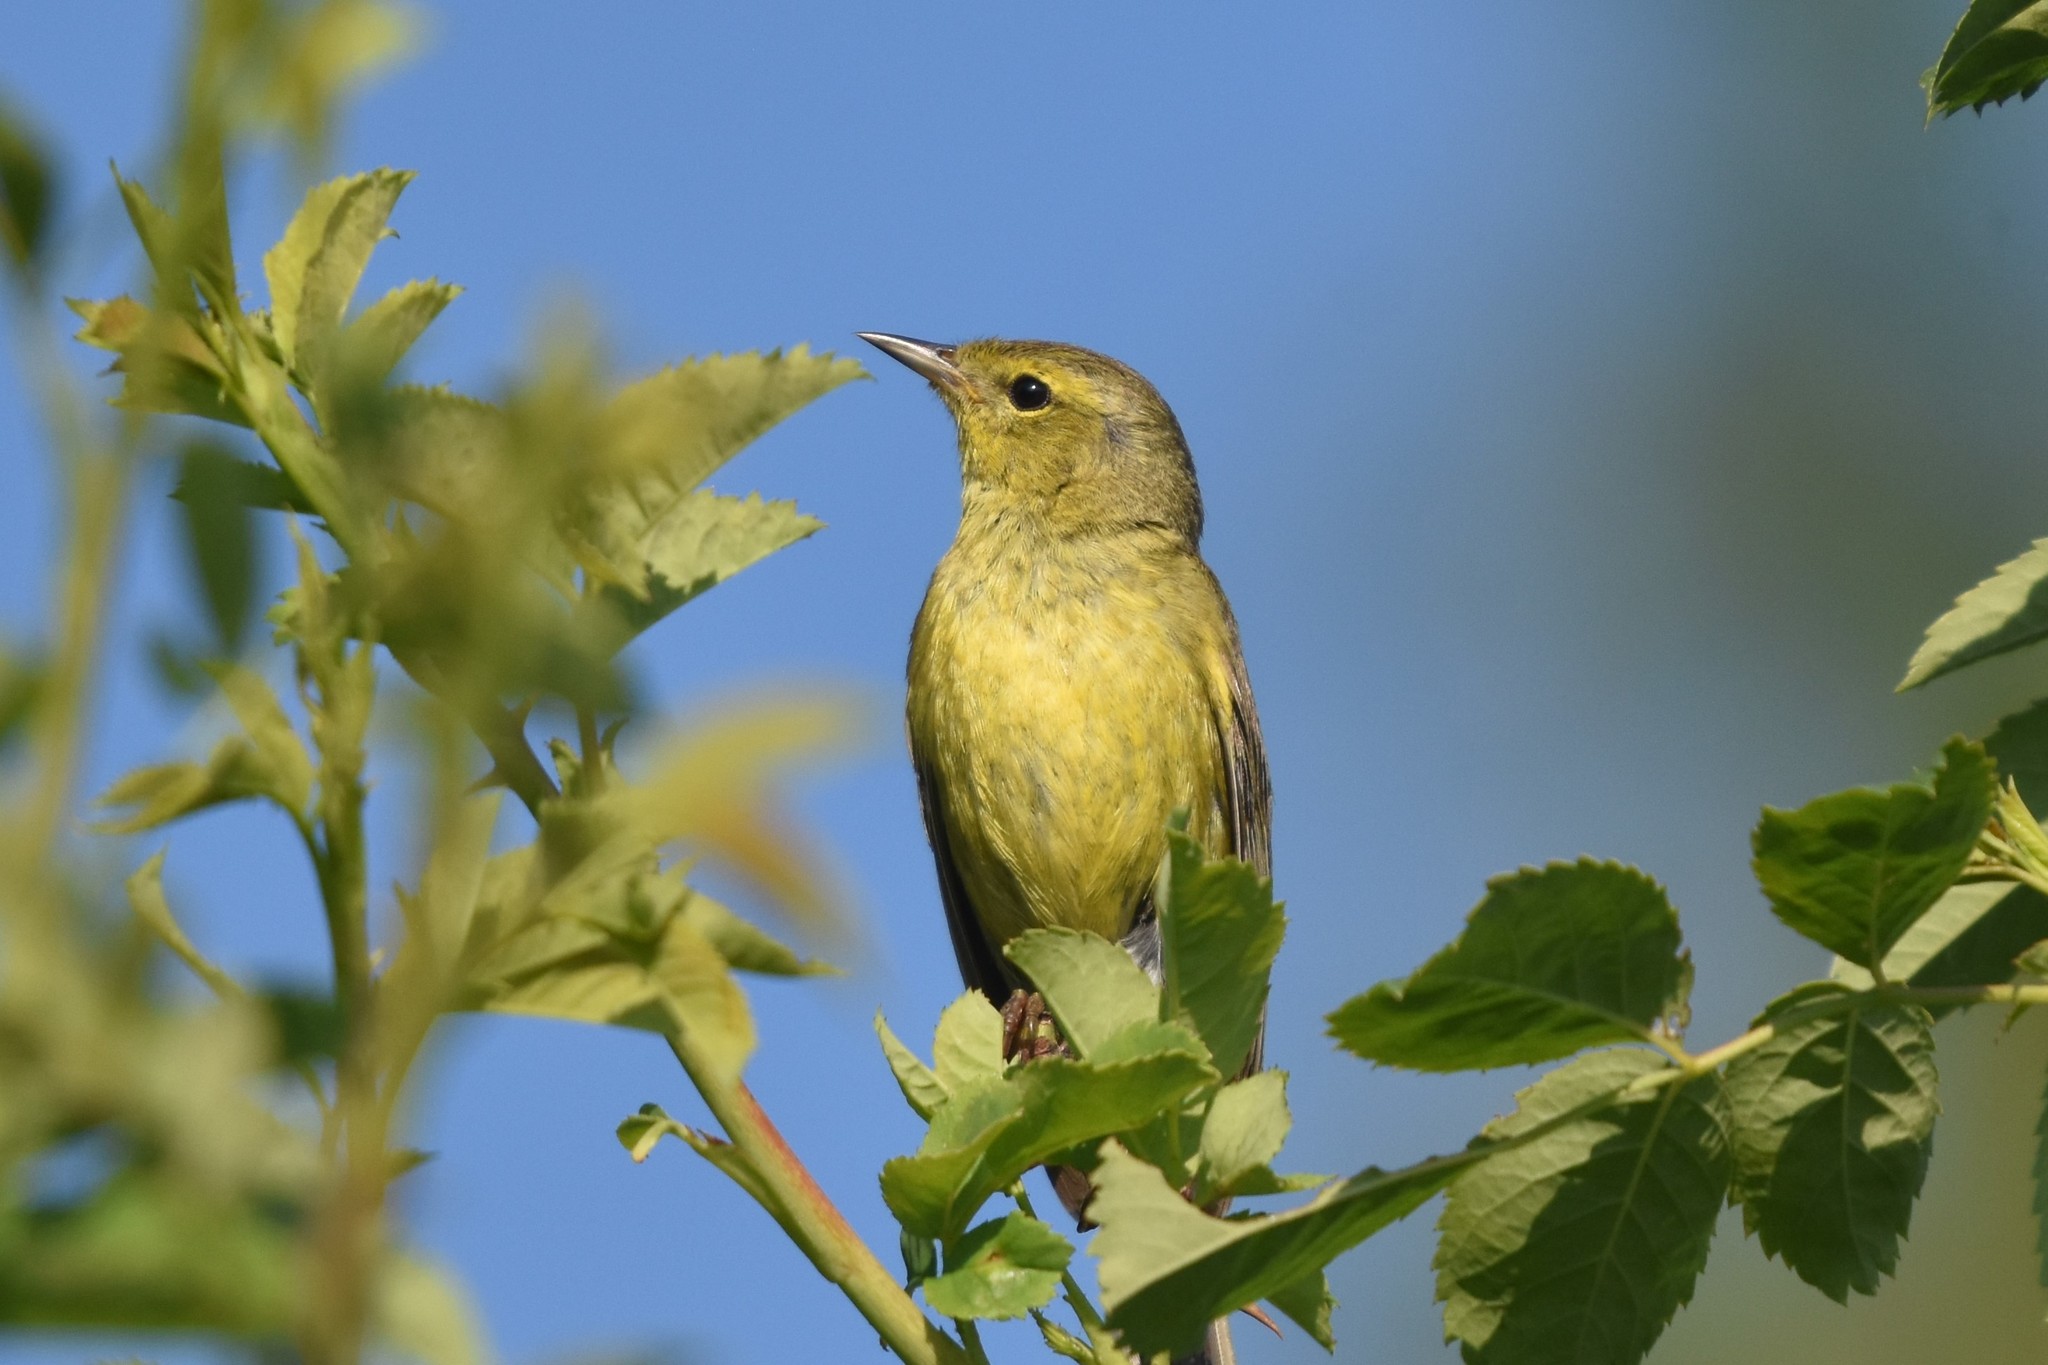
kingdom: Animalia
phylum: Chordata
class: Aves
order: Passeriformes
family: Parulidae
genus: Leiothlypis
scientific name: Leiothlypis celata
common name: Orange-crowned warbler
